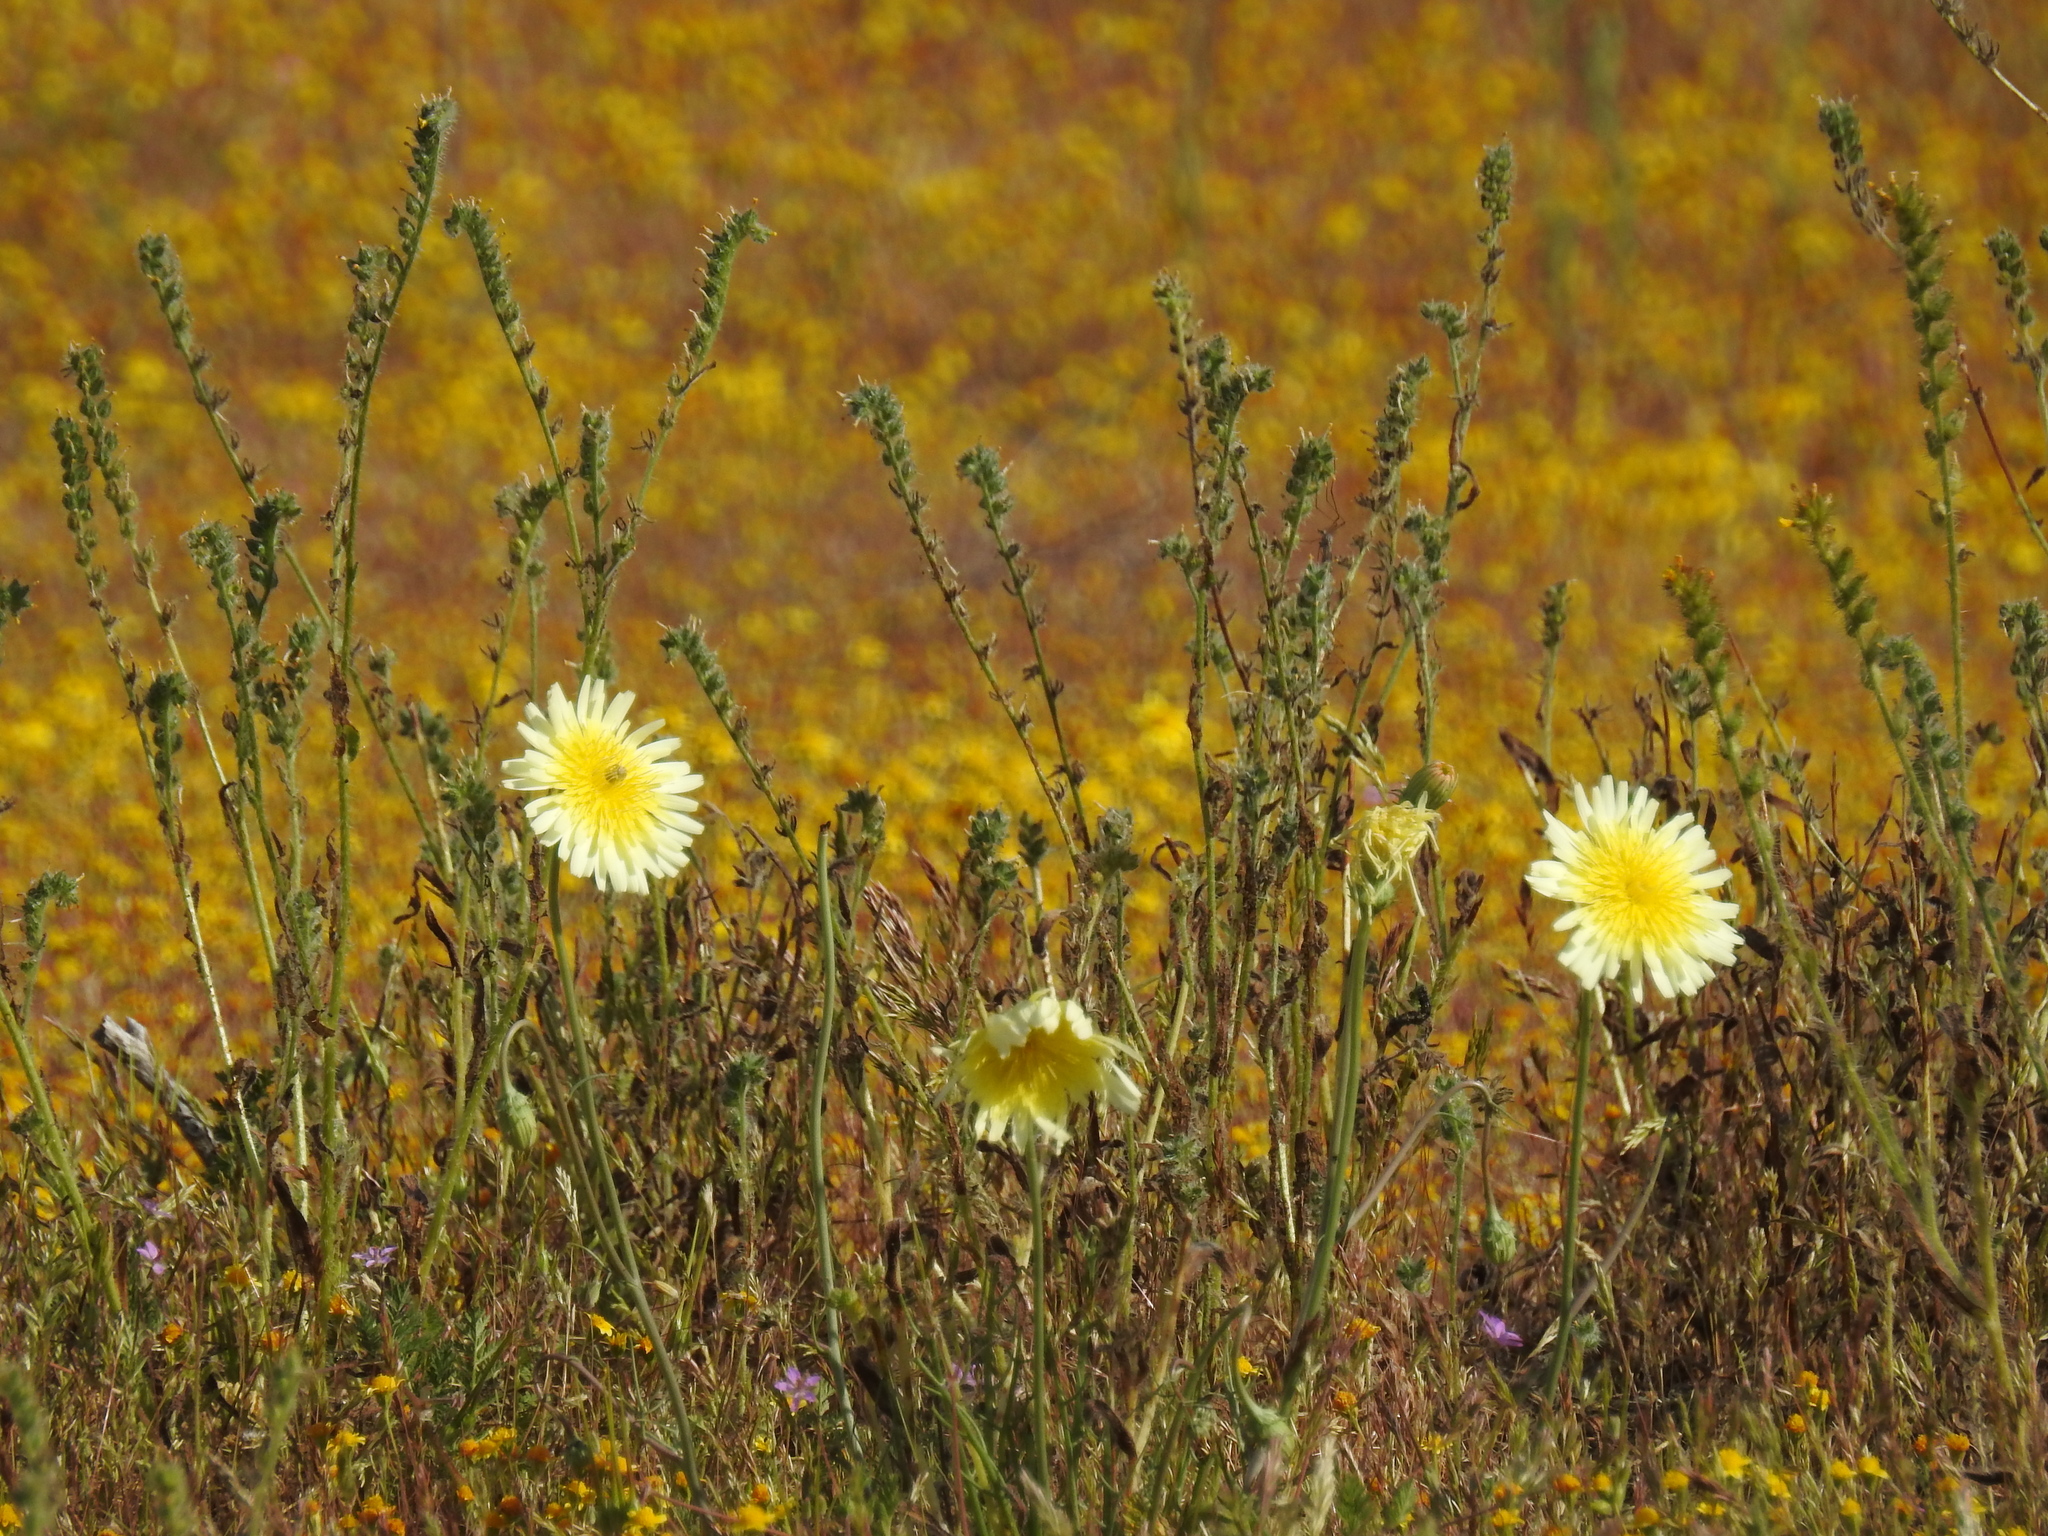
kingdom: Plantae
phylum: Tracheophyta
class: Magnoliopsida
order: Asterales
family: Asteraceae
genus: Malacothrix
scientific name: Malacothrix glabrata
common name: Smooth desert-dandelion
